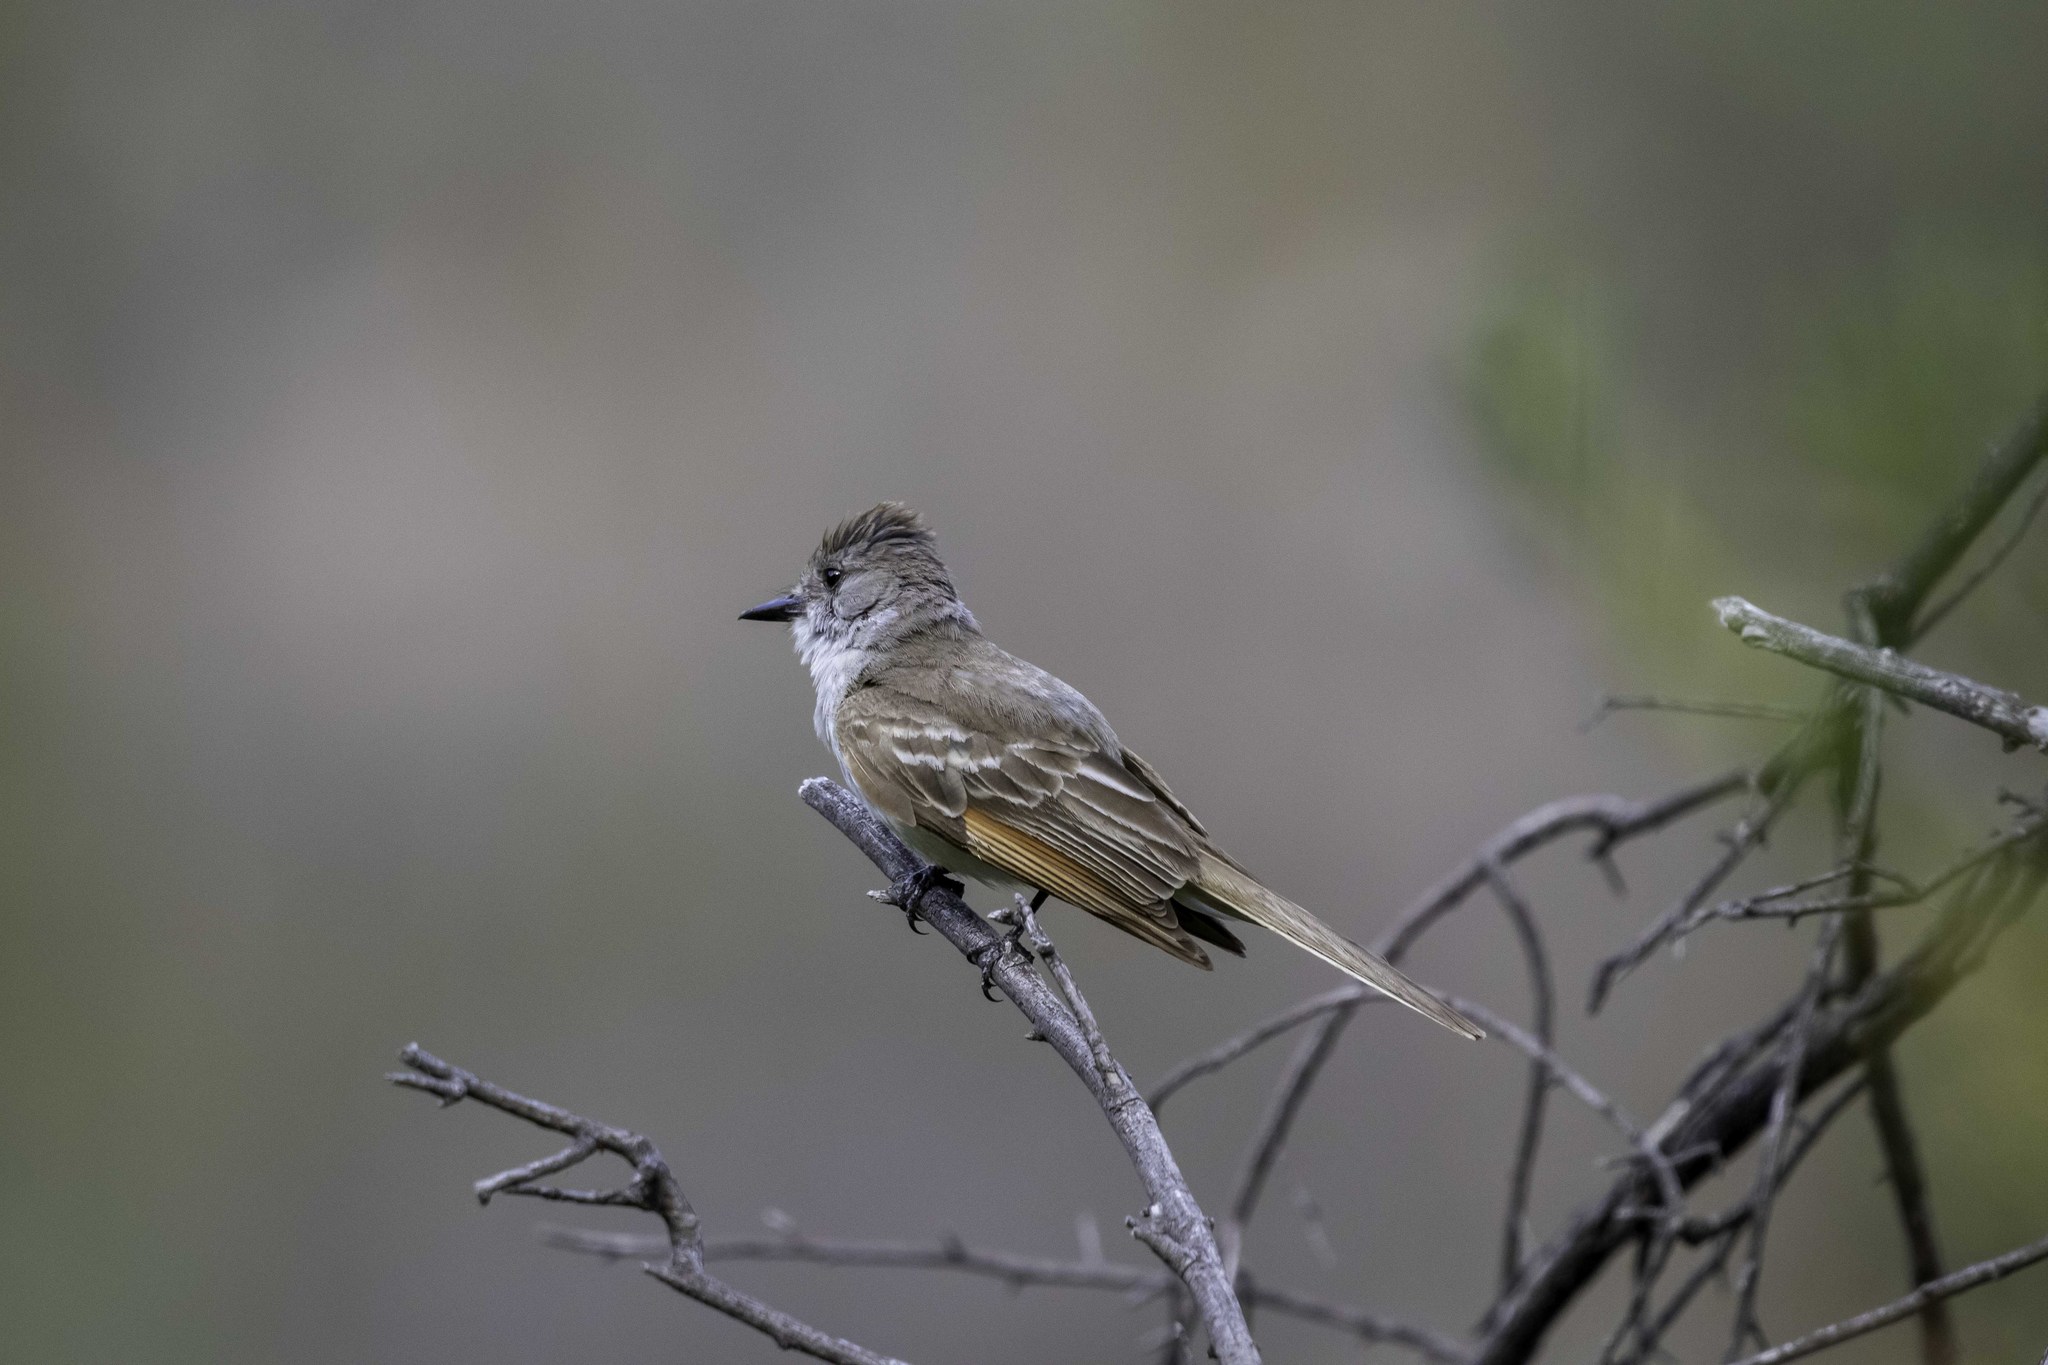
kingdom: Animalia
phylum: Chordata
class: Aves
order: Passeriformes
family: Tyrannidae
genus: Myiarchus
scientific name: Myiarchus cinerascens
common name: Ash-throated flycatcher
